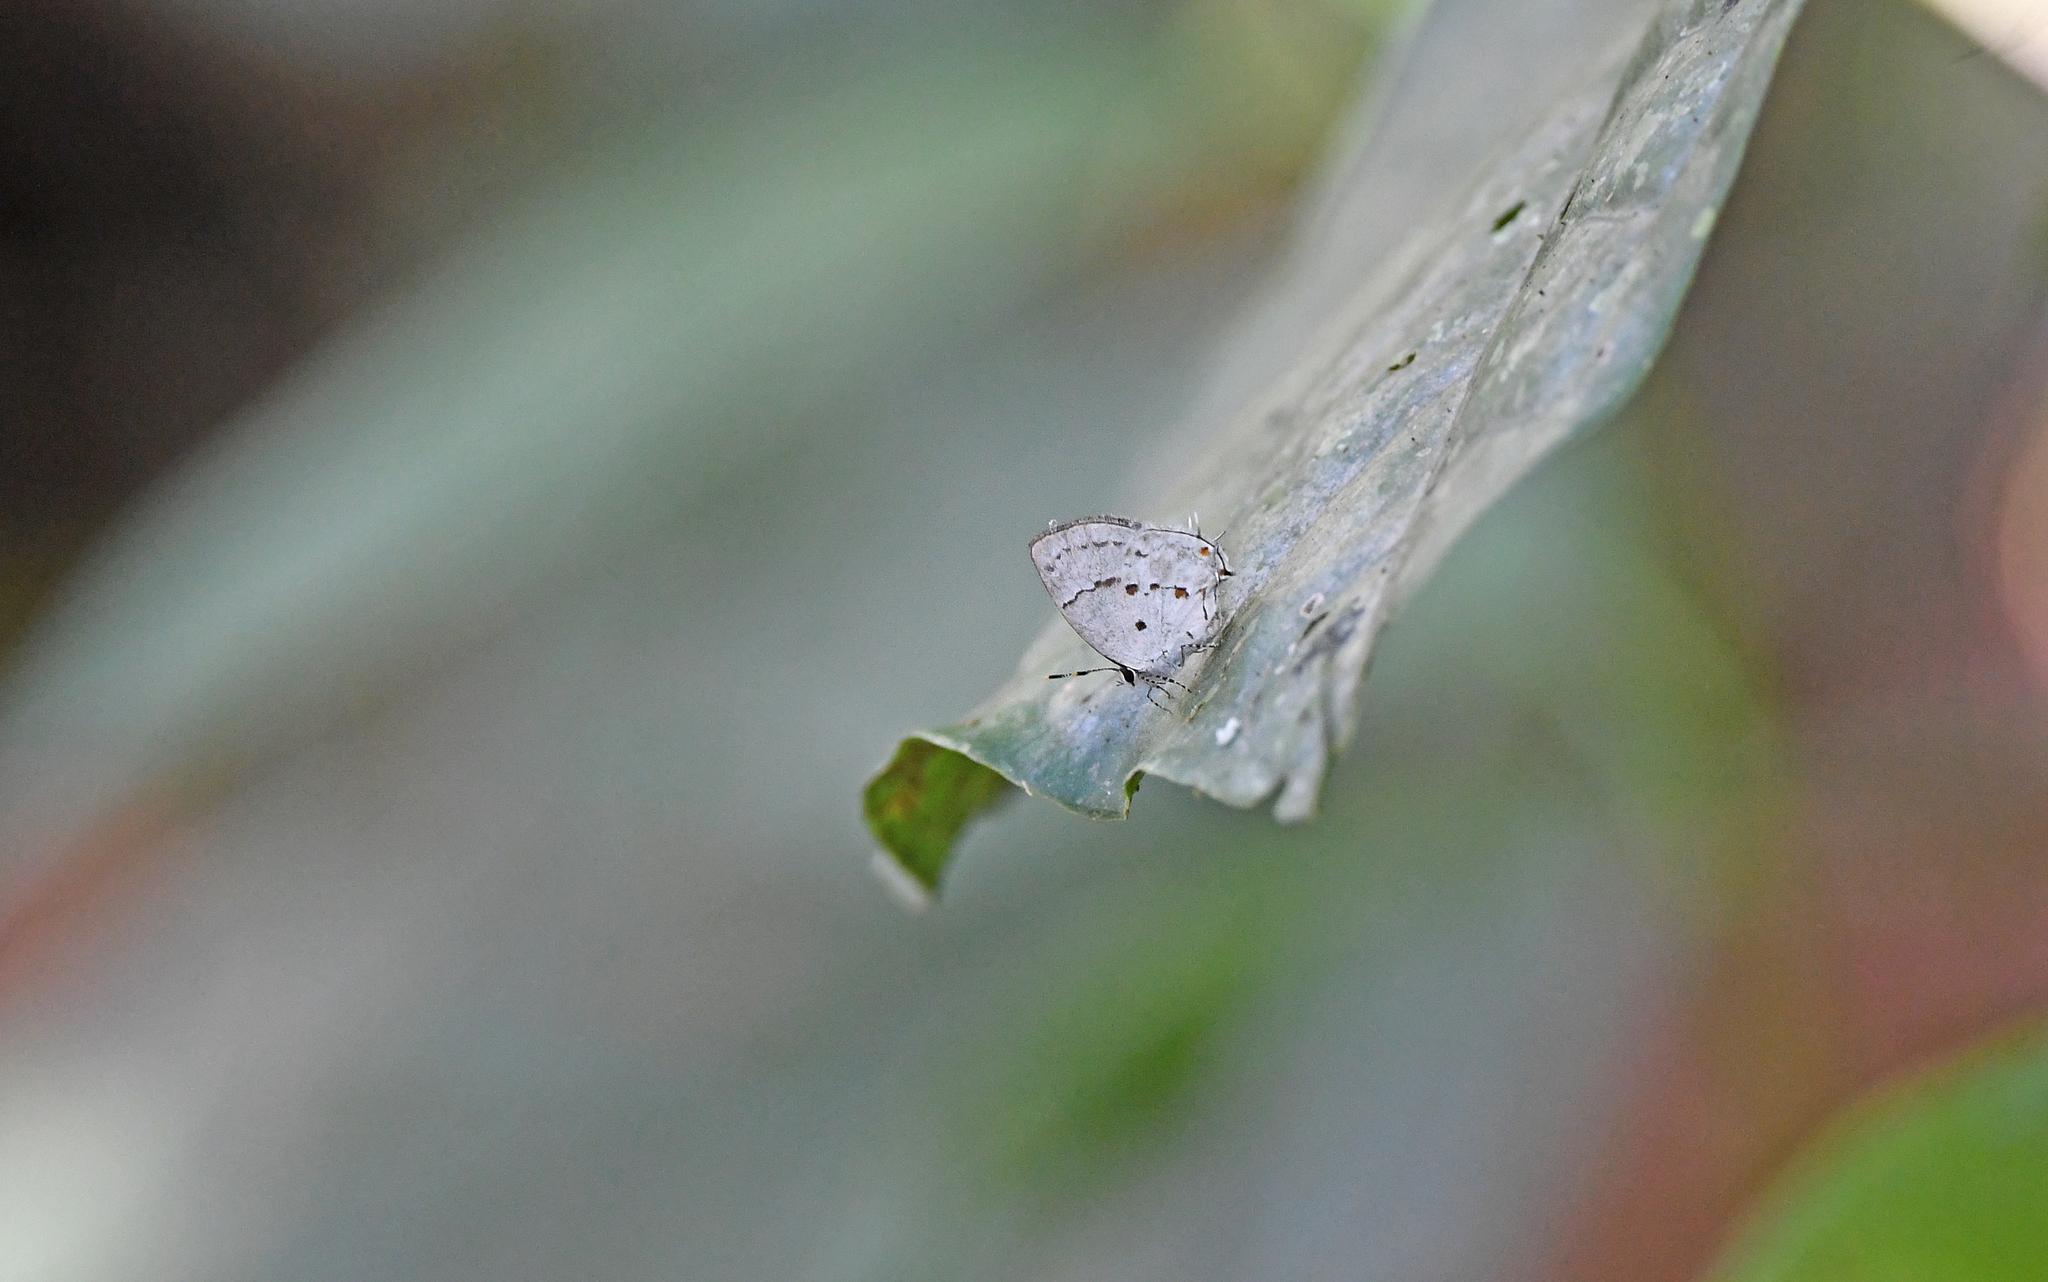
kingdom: Animalia
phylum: Arthropoda
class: Insecta
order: Lepidoptera
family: Lycaenidae
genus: Thecla
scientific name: Thecla celmus
